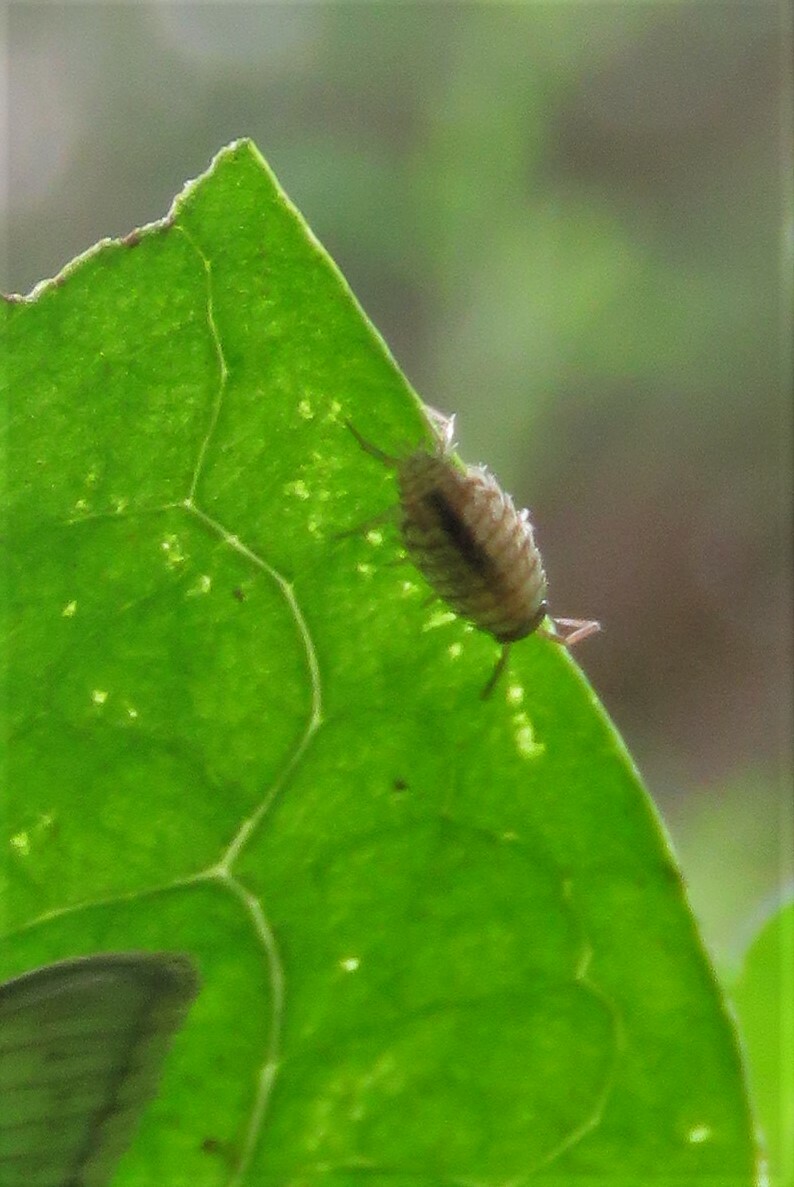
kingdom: Animalia
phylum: Arthropoda
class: Malacostraca
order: Isopoda
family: Philosciidae
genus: Philoscia
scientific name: Philoscia muscorum
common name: Common striped woodlouse
